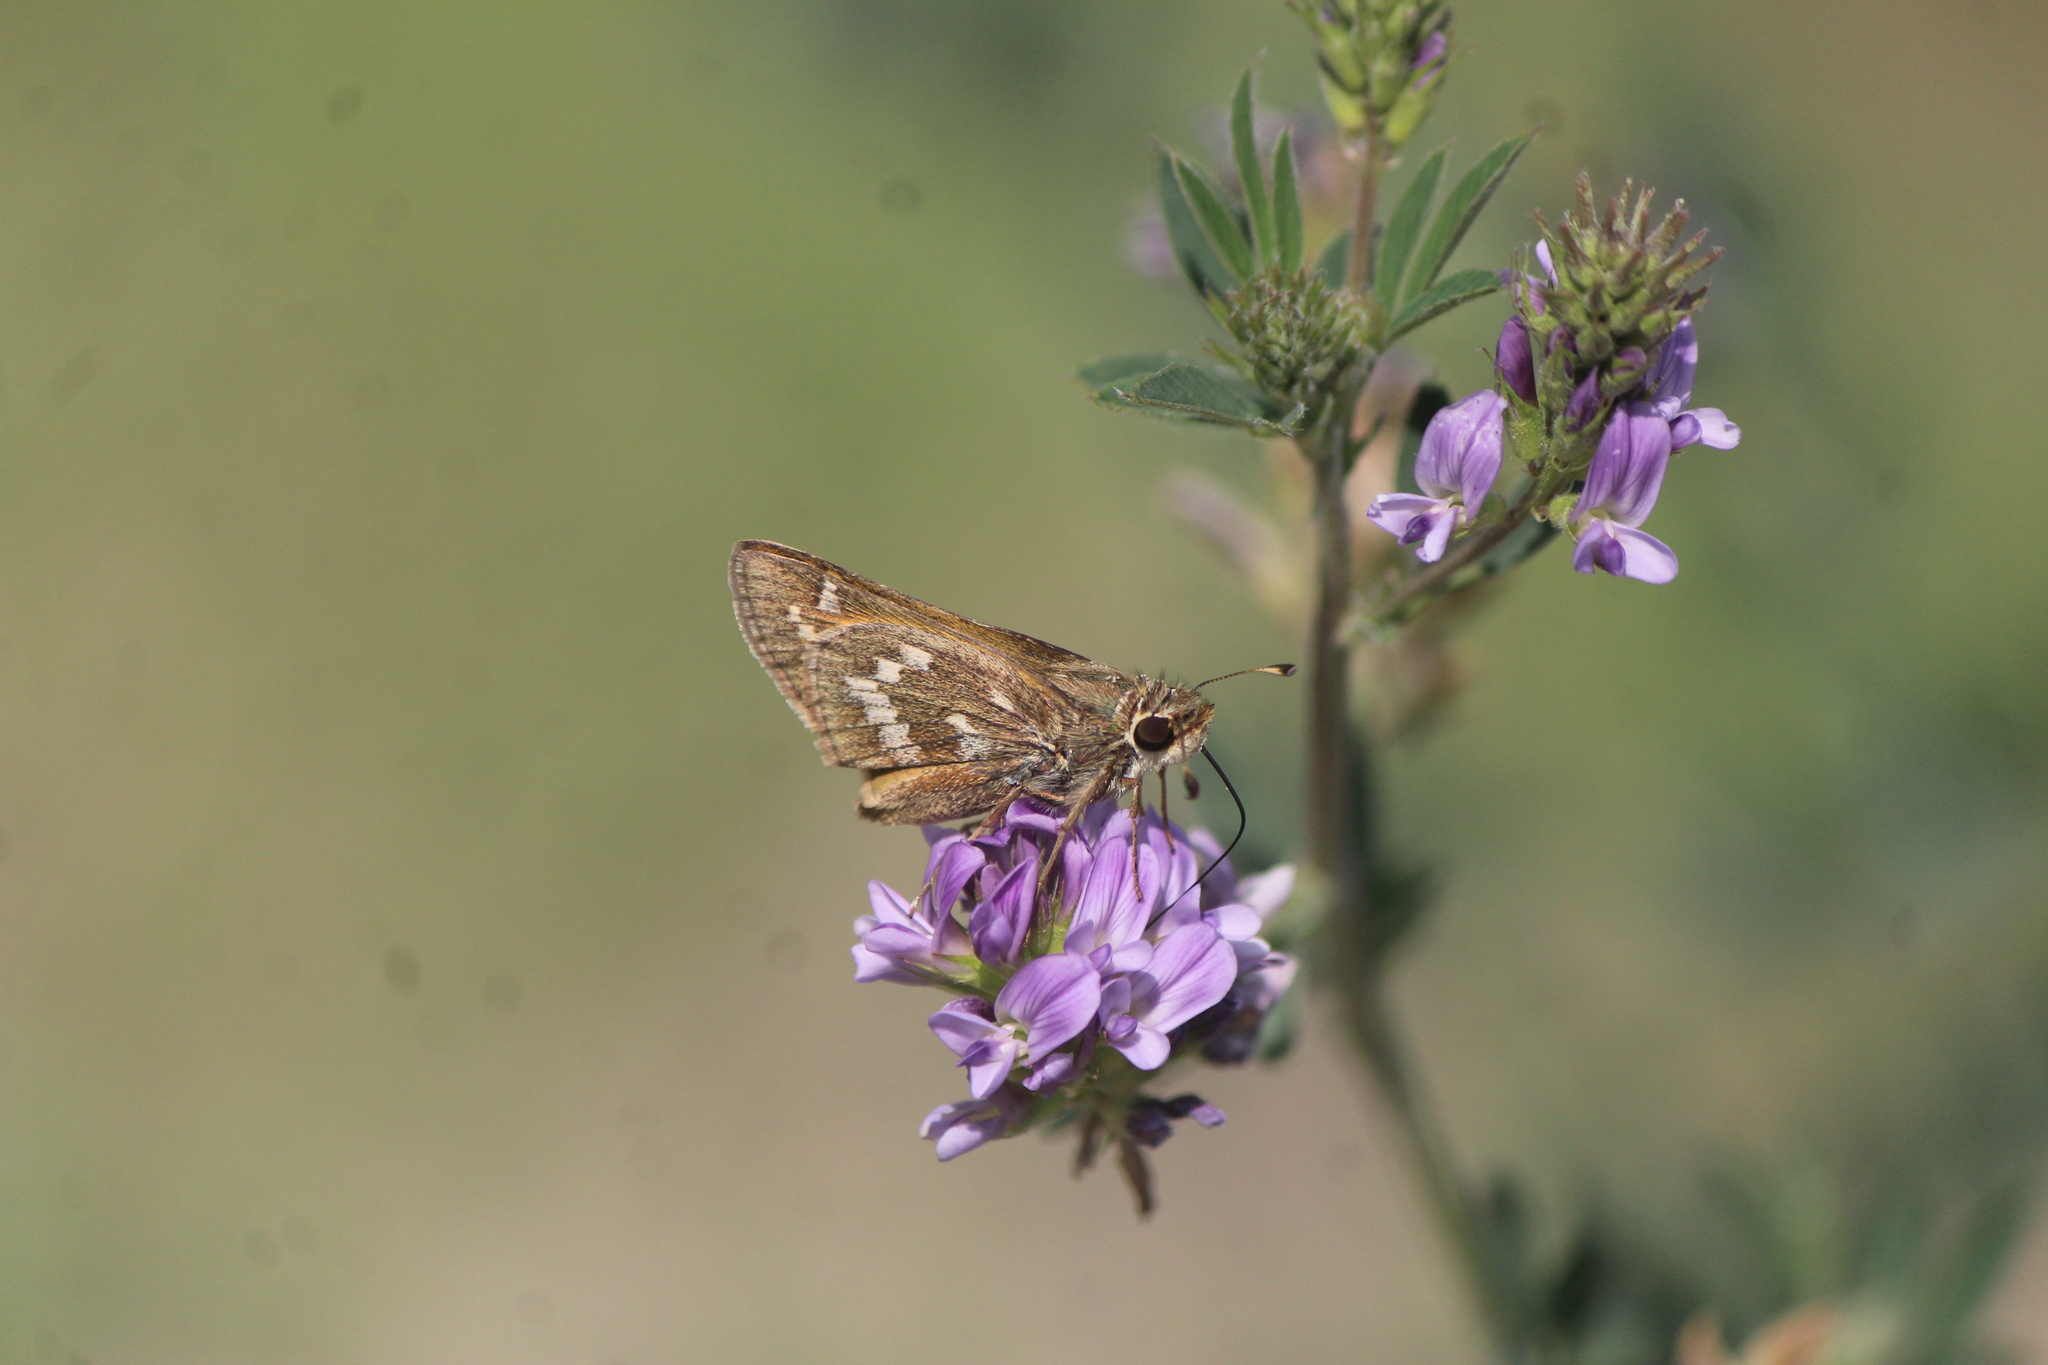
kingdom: Animalia
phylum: Arthropoda
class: Insecta
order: Lepidoptera
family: Hesperiidae
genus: Atalopedes
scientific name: Atalopedes
